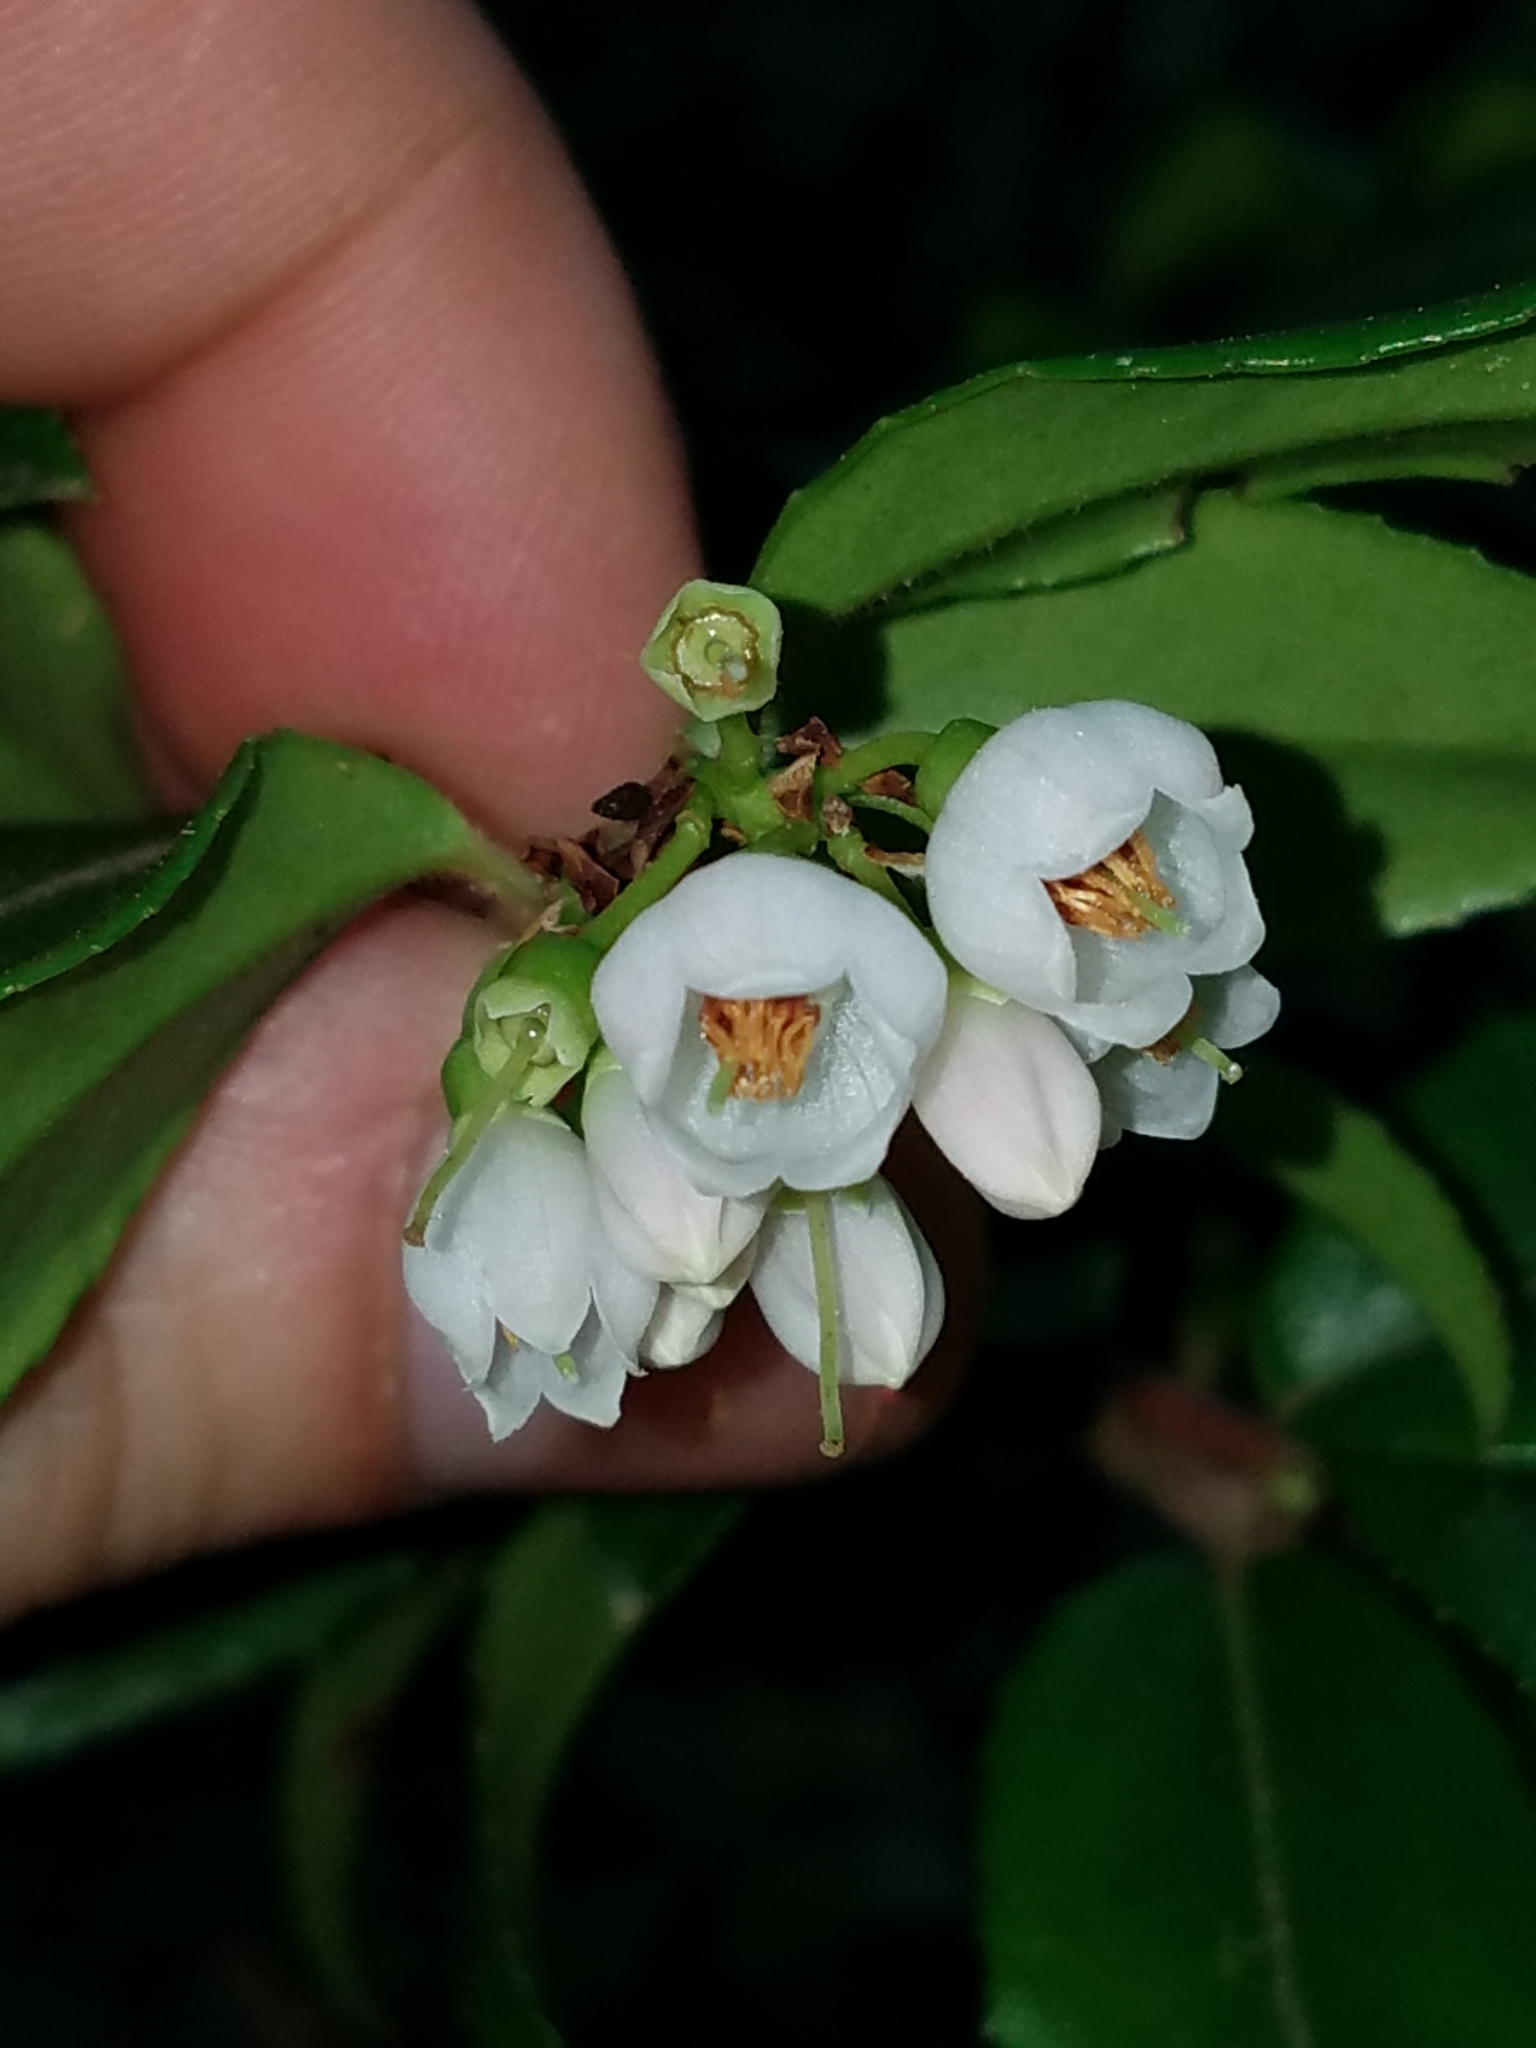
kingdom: Plantae
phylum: Tracheophyta
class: Magnoliopsida
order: Ericales
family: Ericaceae
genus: Vaccinium
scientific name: Vaccinium ovatum
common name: California-huckleberry
